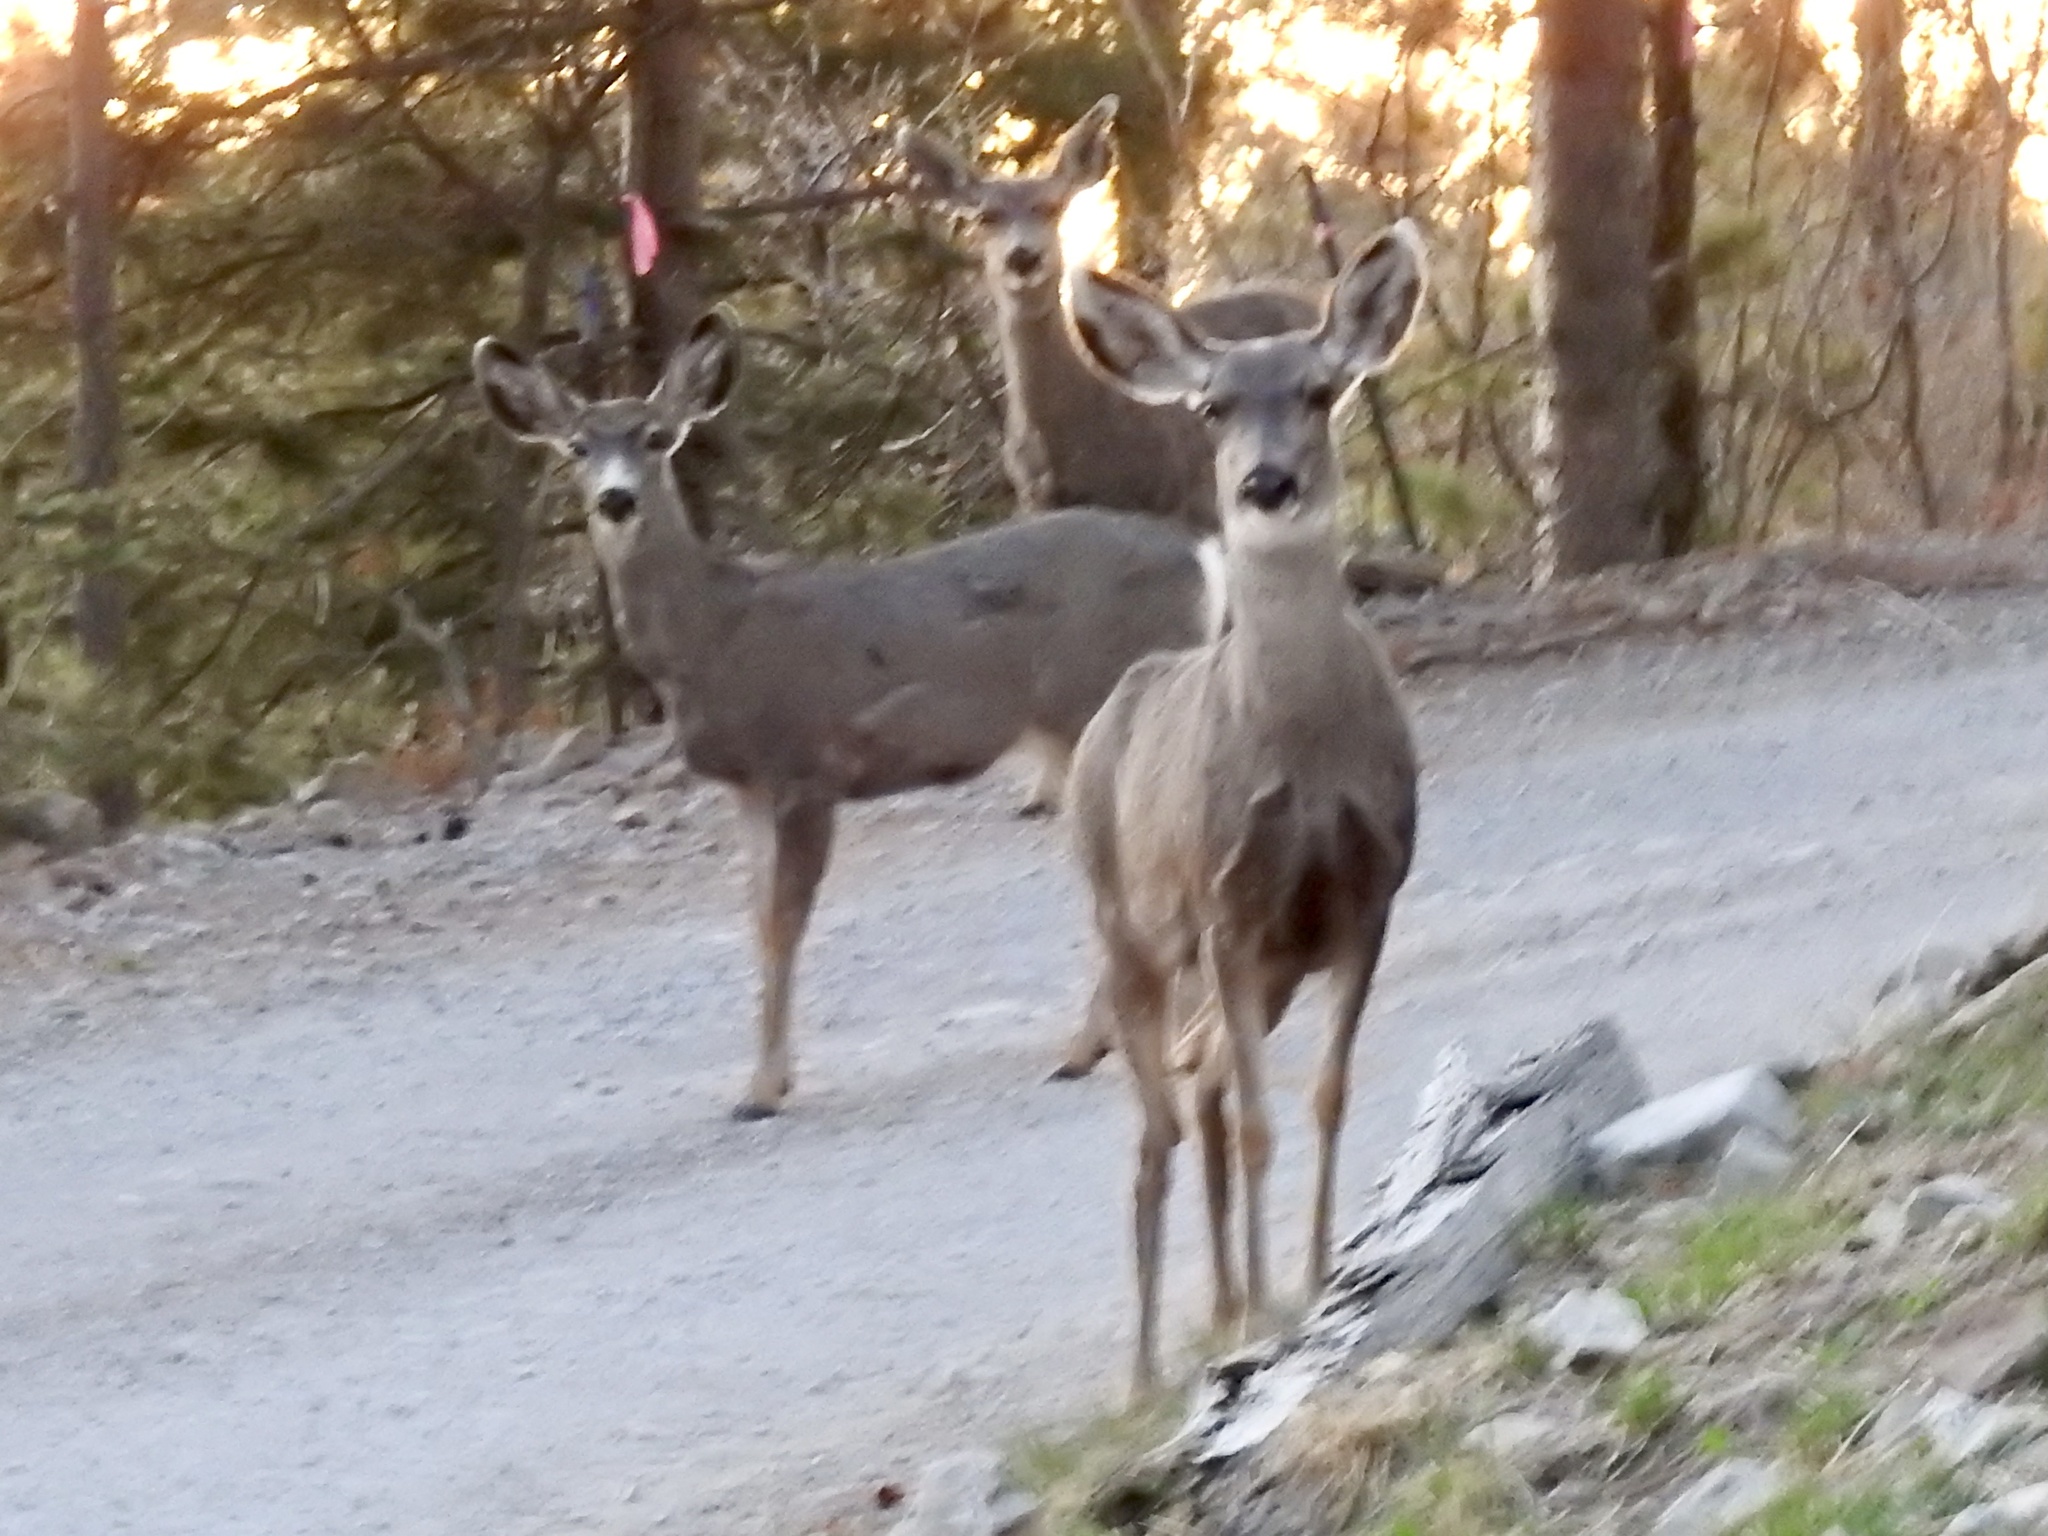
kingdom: Animalia
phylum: Chordata
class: Mammalia
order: Artiodactyla
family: Cervidae
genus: Odocoileus
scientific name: Odocoileus hemionus
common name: Mule deer
